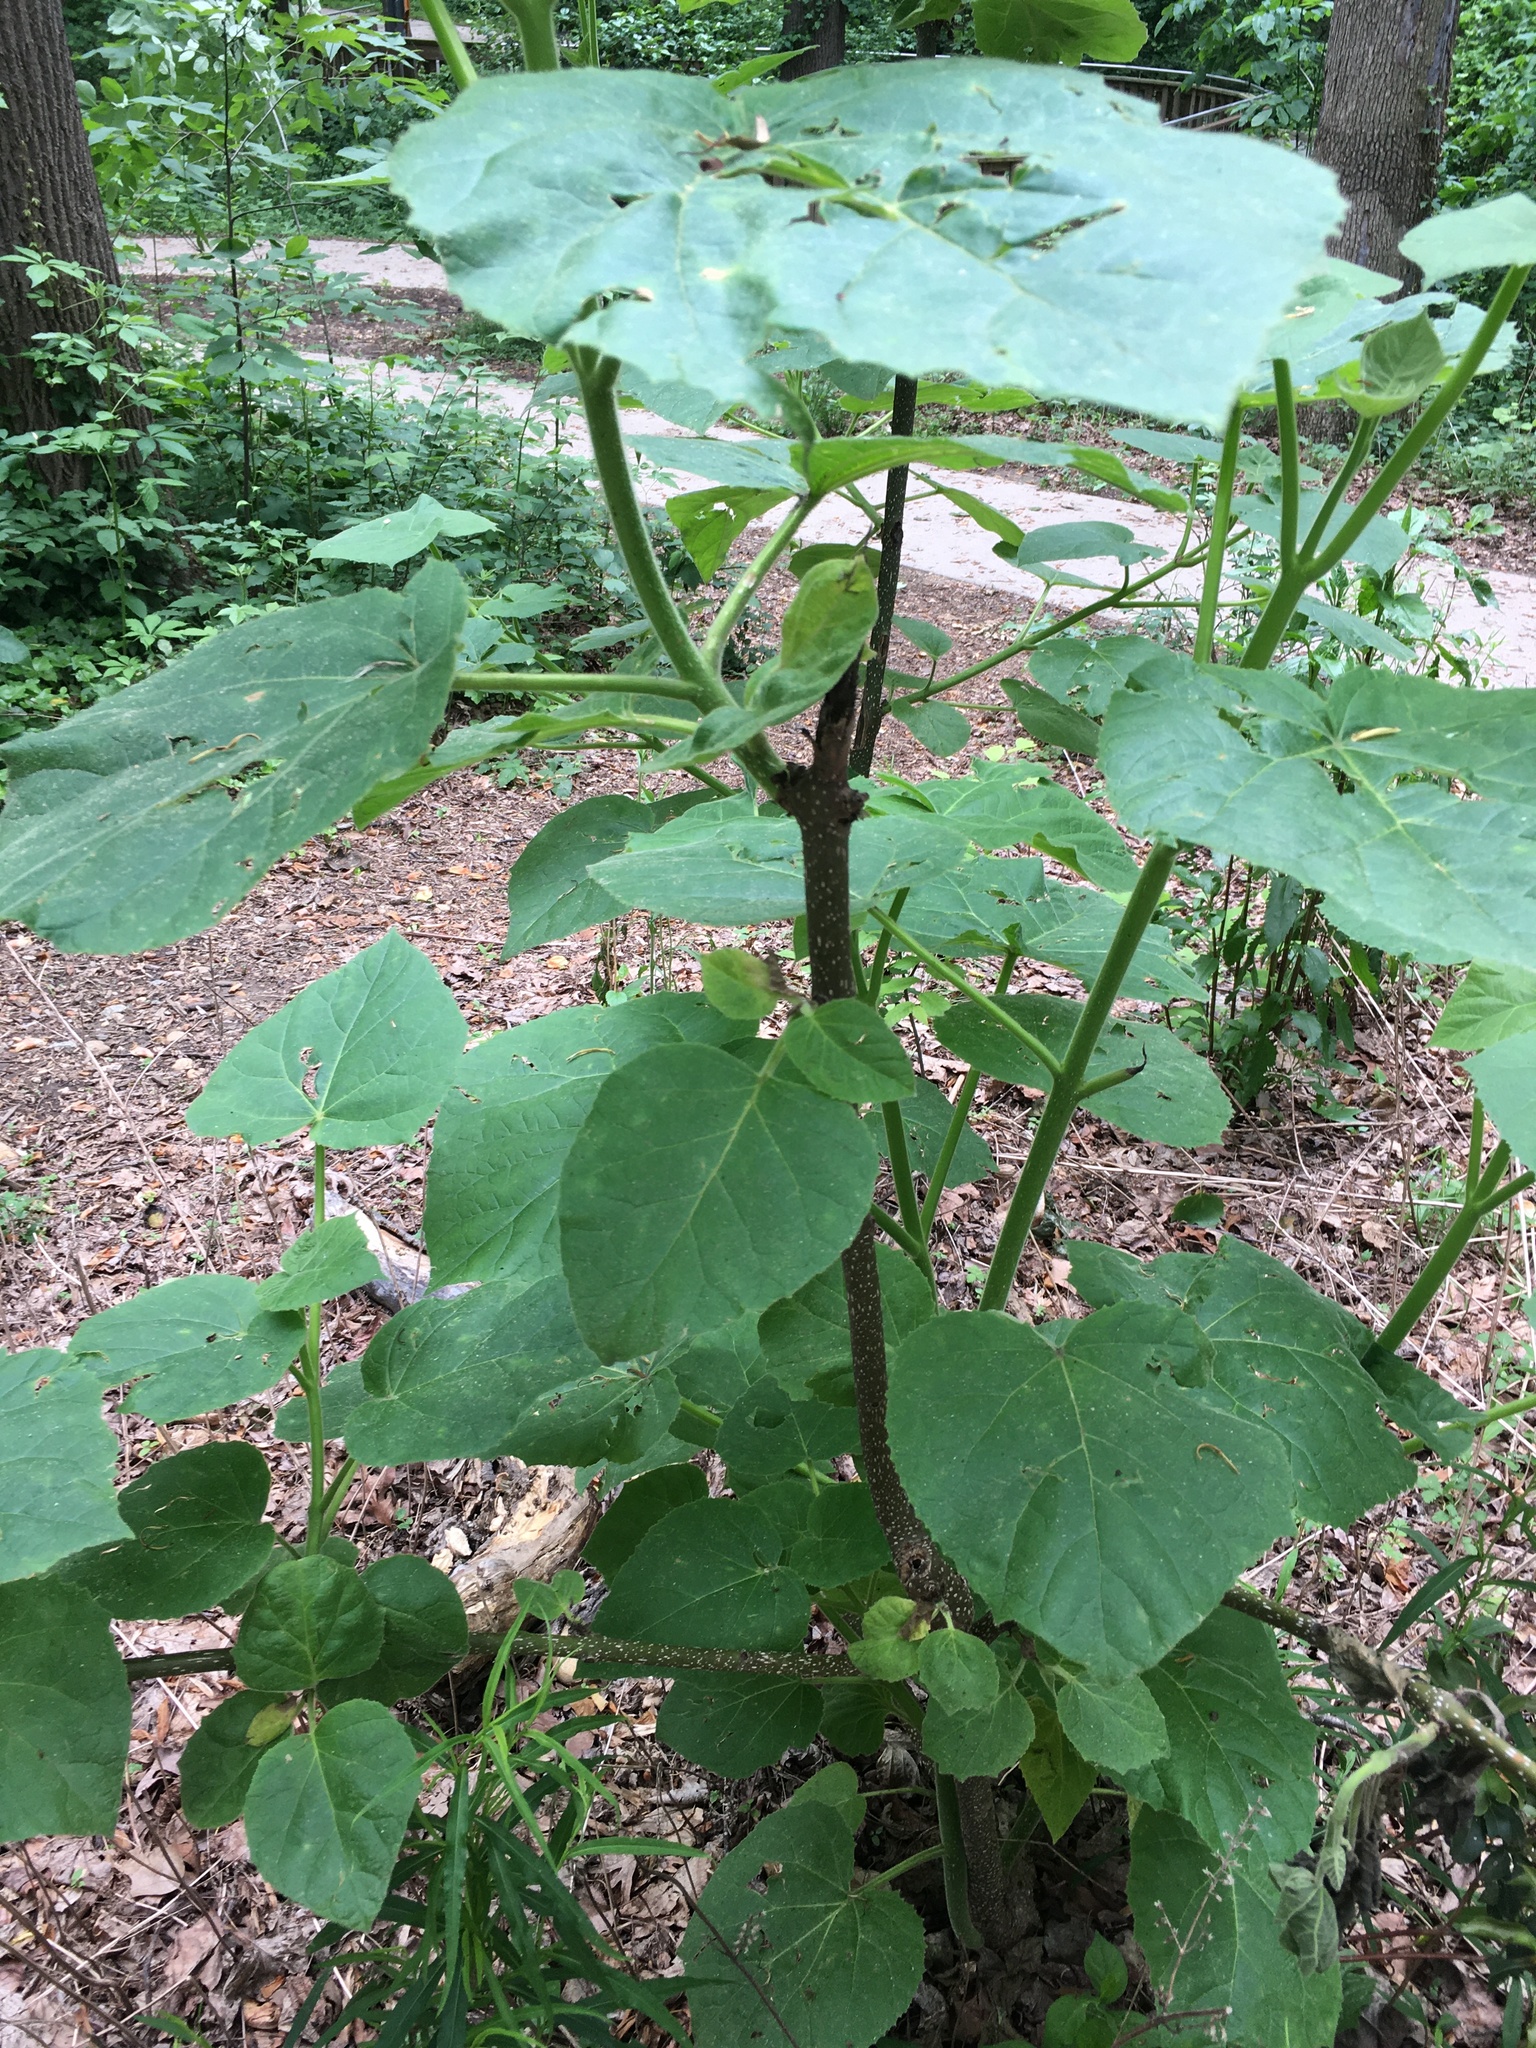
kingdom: Plantae
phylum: Tracheophyta
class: Magnoliopsida
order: Lamiales
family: Paulowniaceae
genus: Paulownia
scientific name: Paulownia tomentosa
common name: Foxglove-tree
